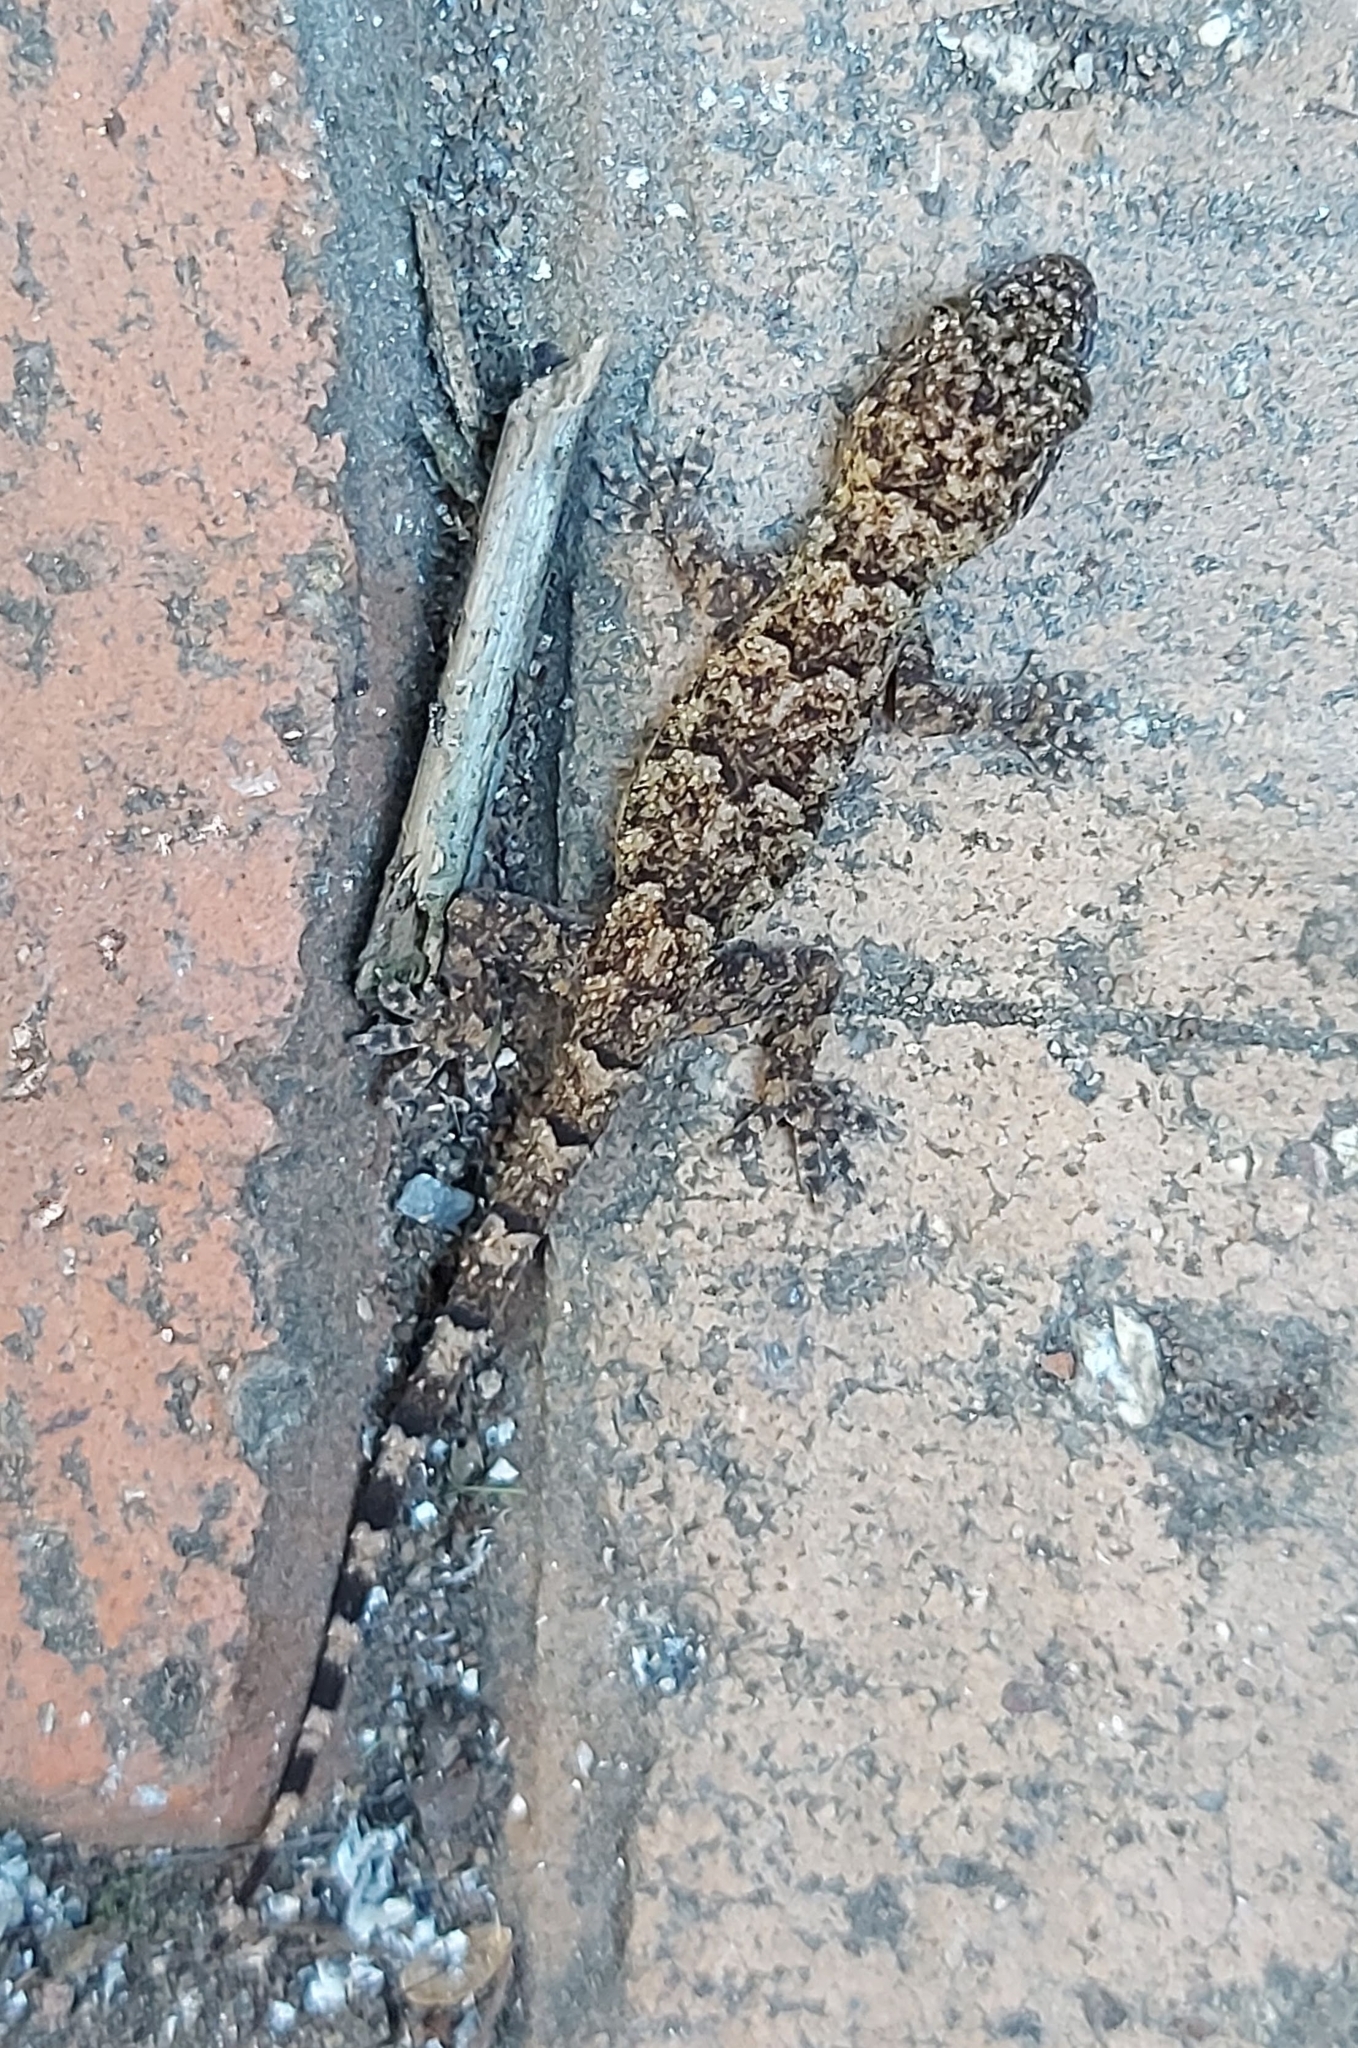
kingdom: Animalia
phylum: Chordata
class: Squamata
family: Gekkonidae
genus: Hemidactylus
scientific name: Hemidactylus mabouia
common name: House gecko
